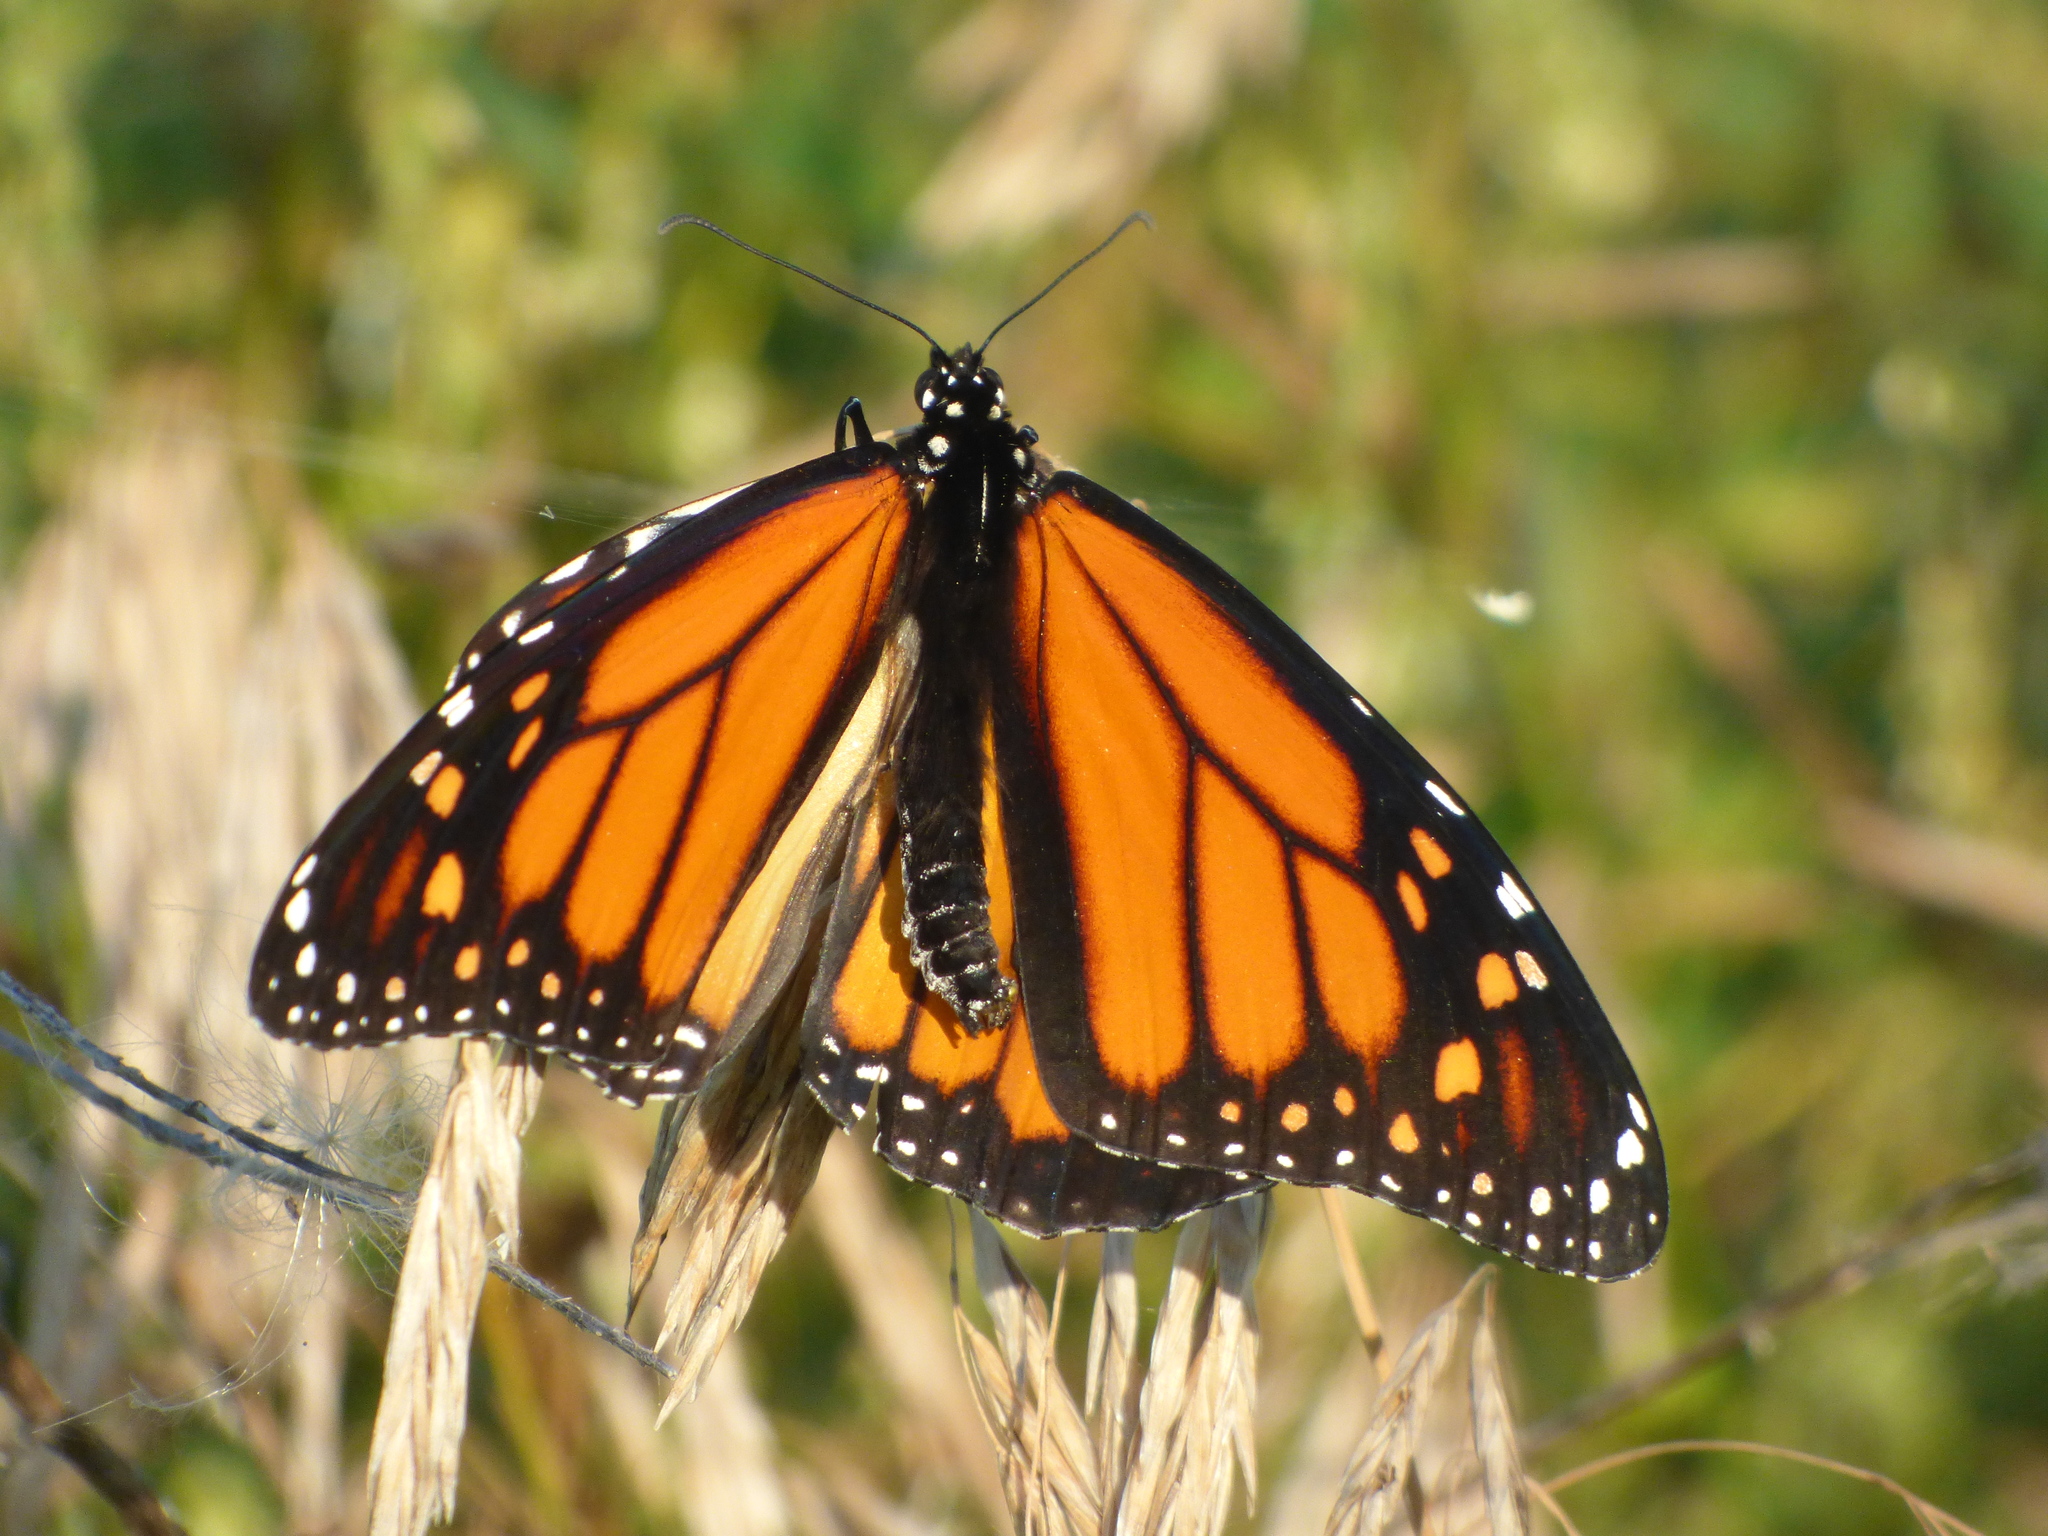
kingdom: Animalia
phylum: Arthropoda
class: Insecta
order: Lepidoptera
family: Nymphalidae
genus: Danaus
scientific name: Danaus plexippus
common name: Monarch
